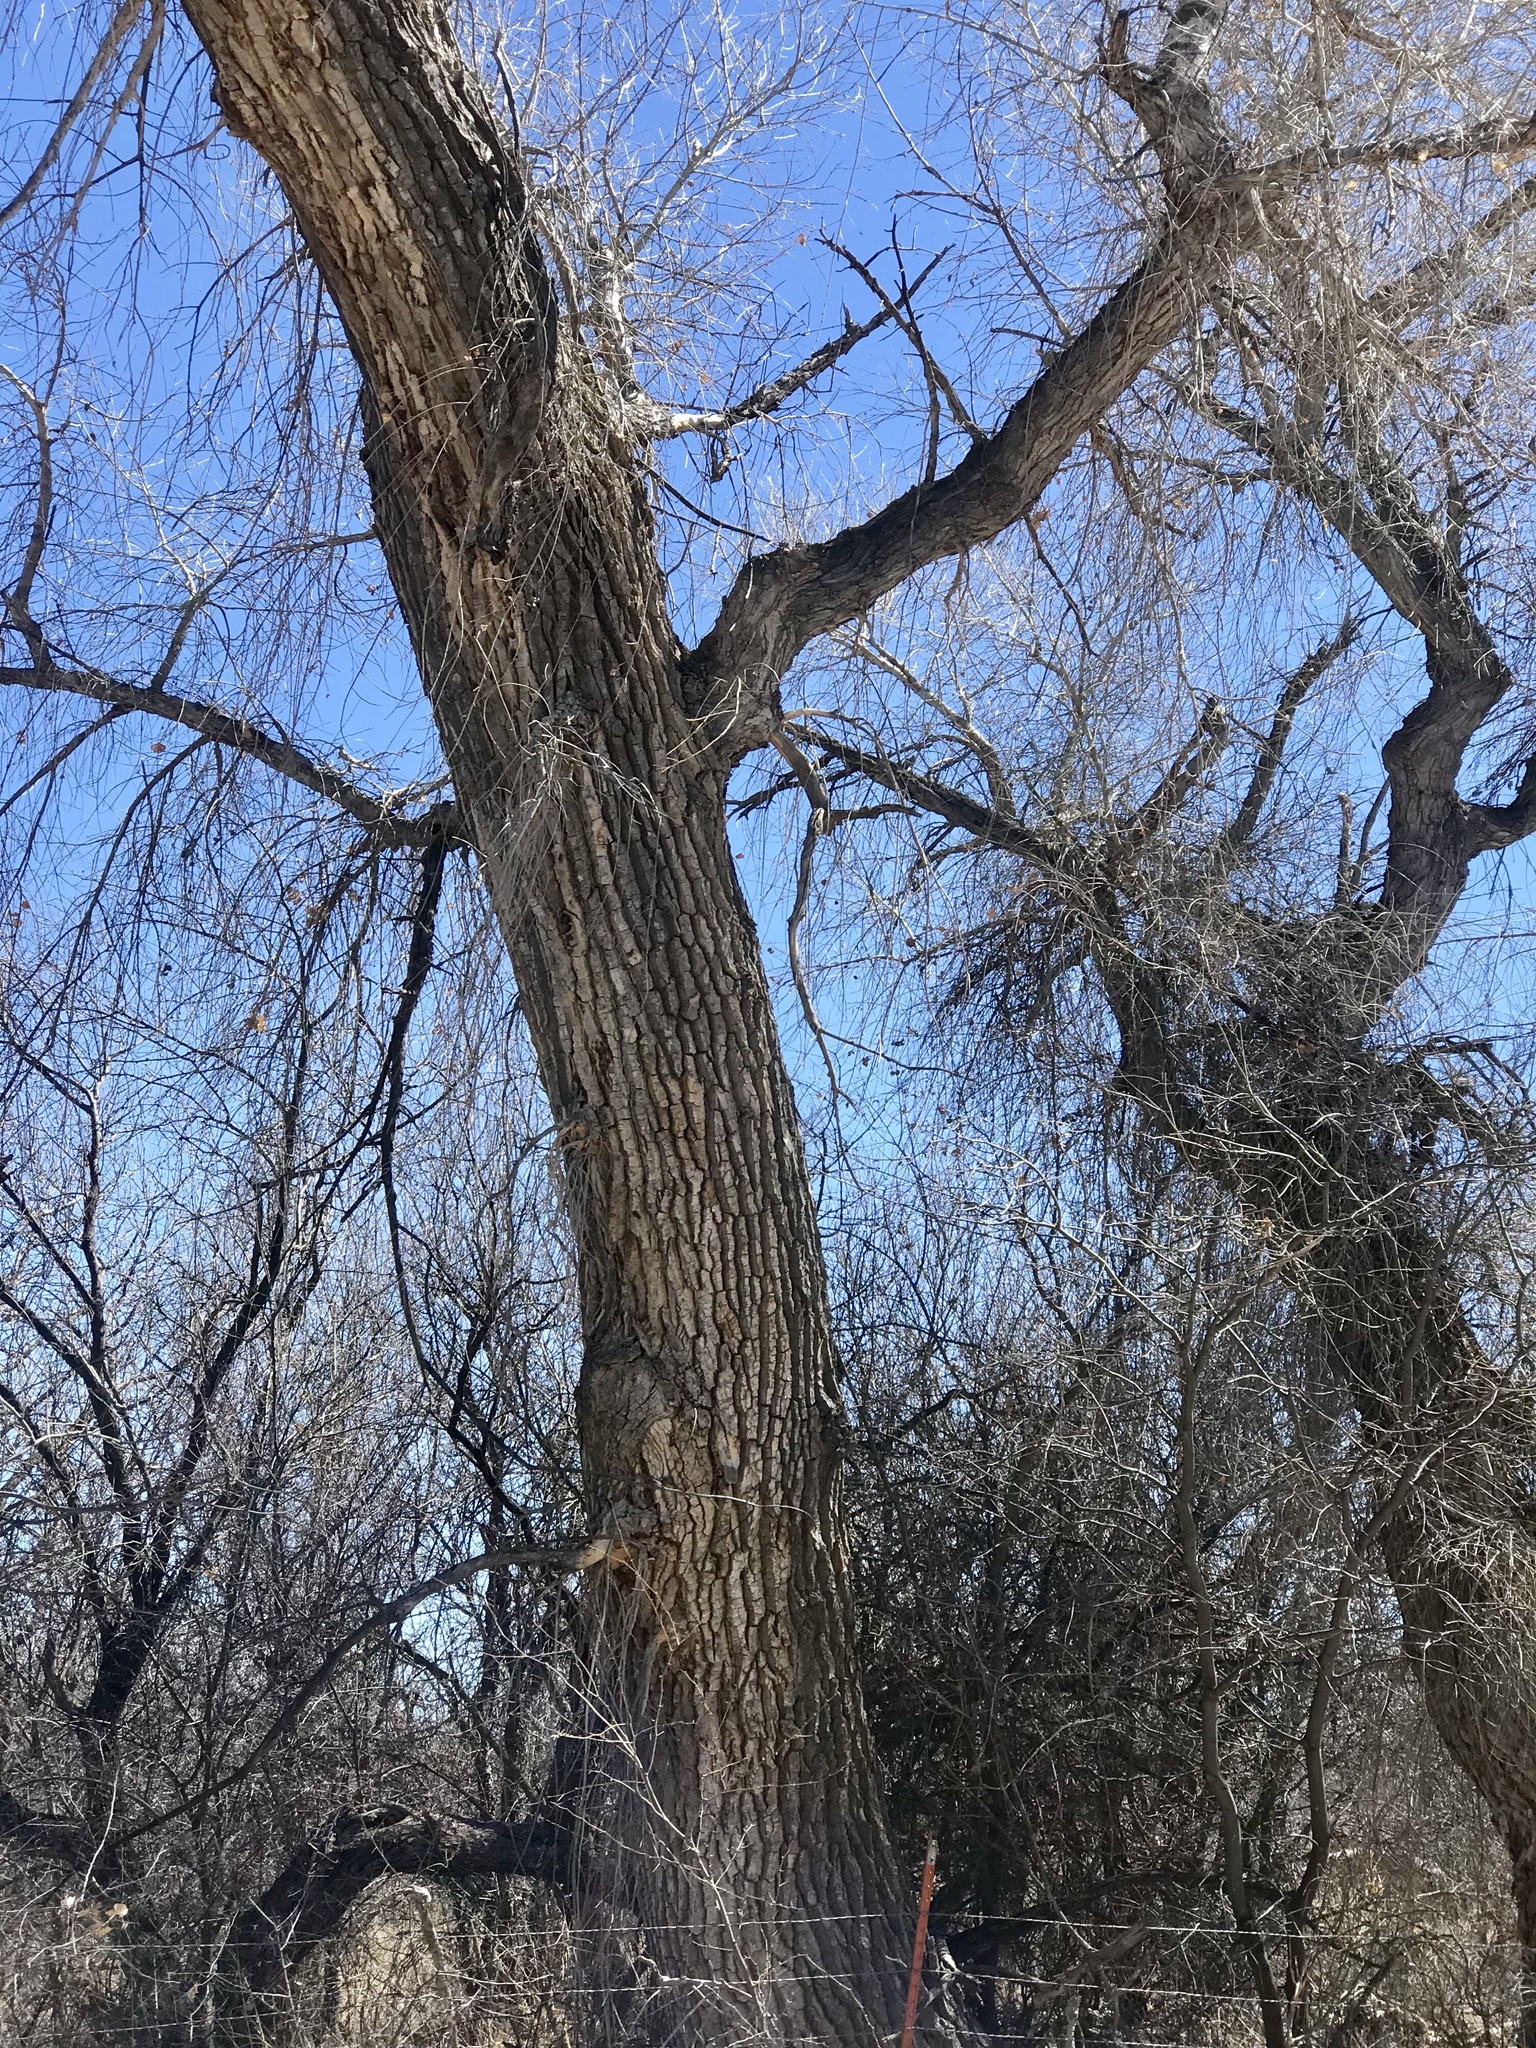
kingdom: Plantae
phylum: Tracheophyta
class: Magnoliopsida
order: Malpighiales
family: Salicaceae
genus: Populus
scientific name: Populus fremontii
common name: Fremont's cottonwood
